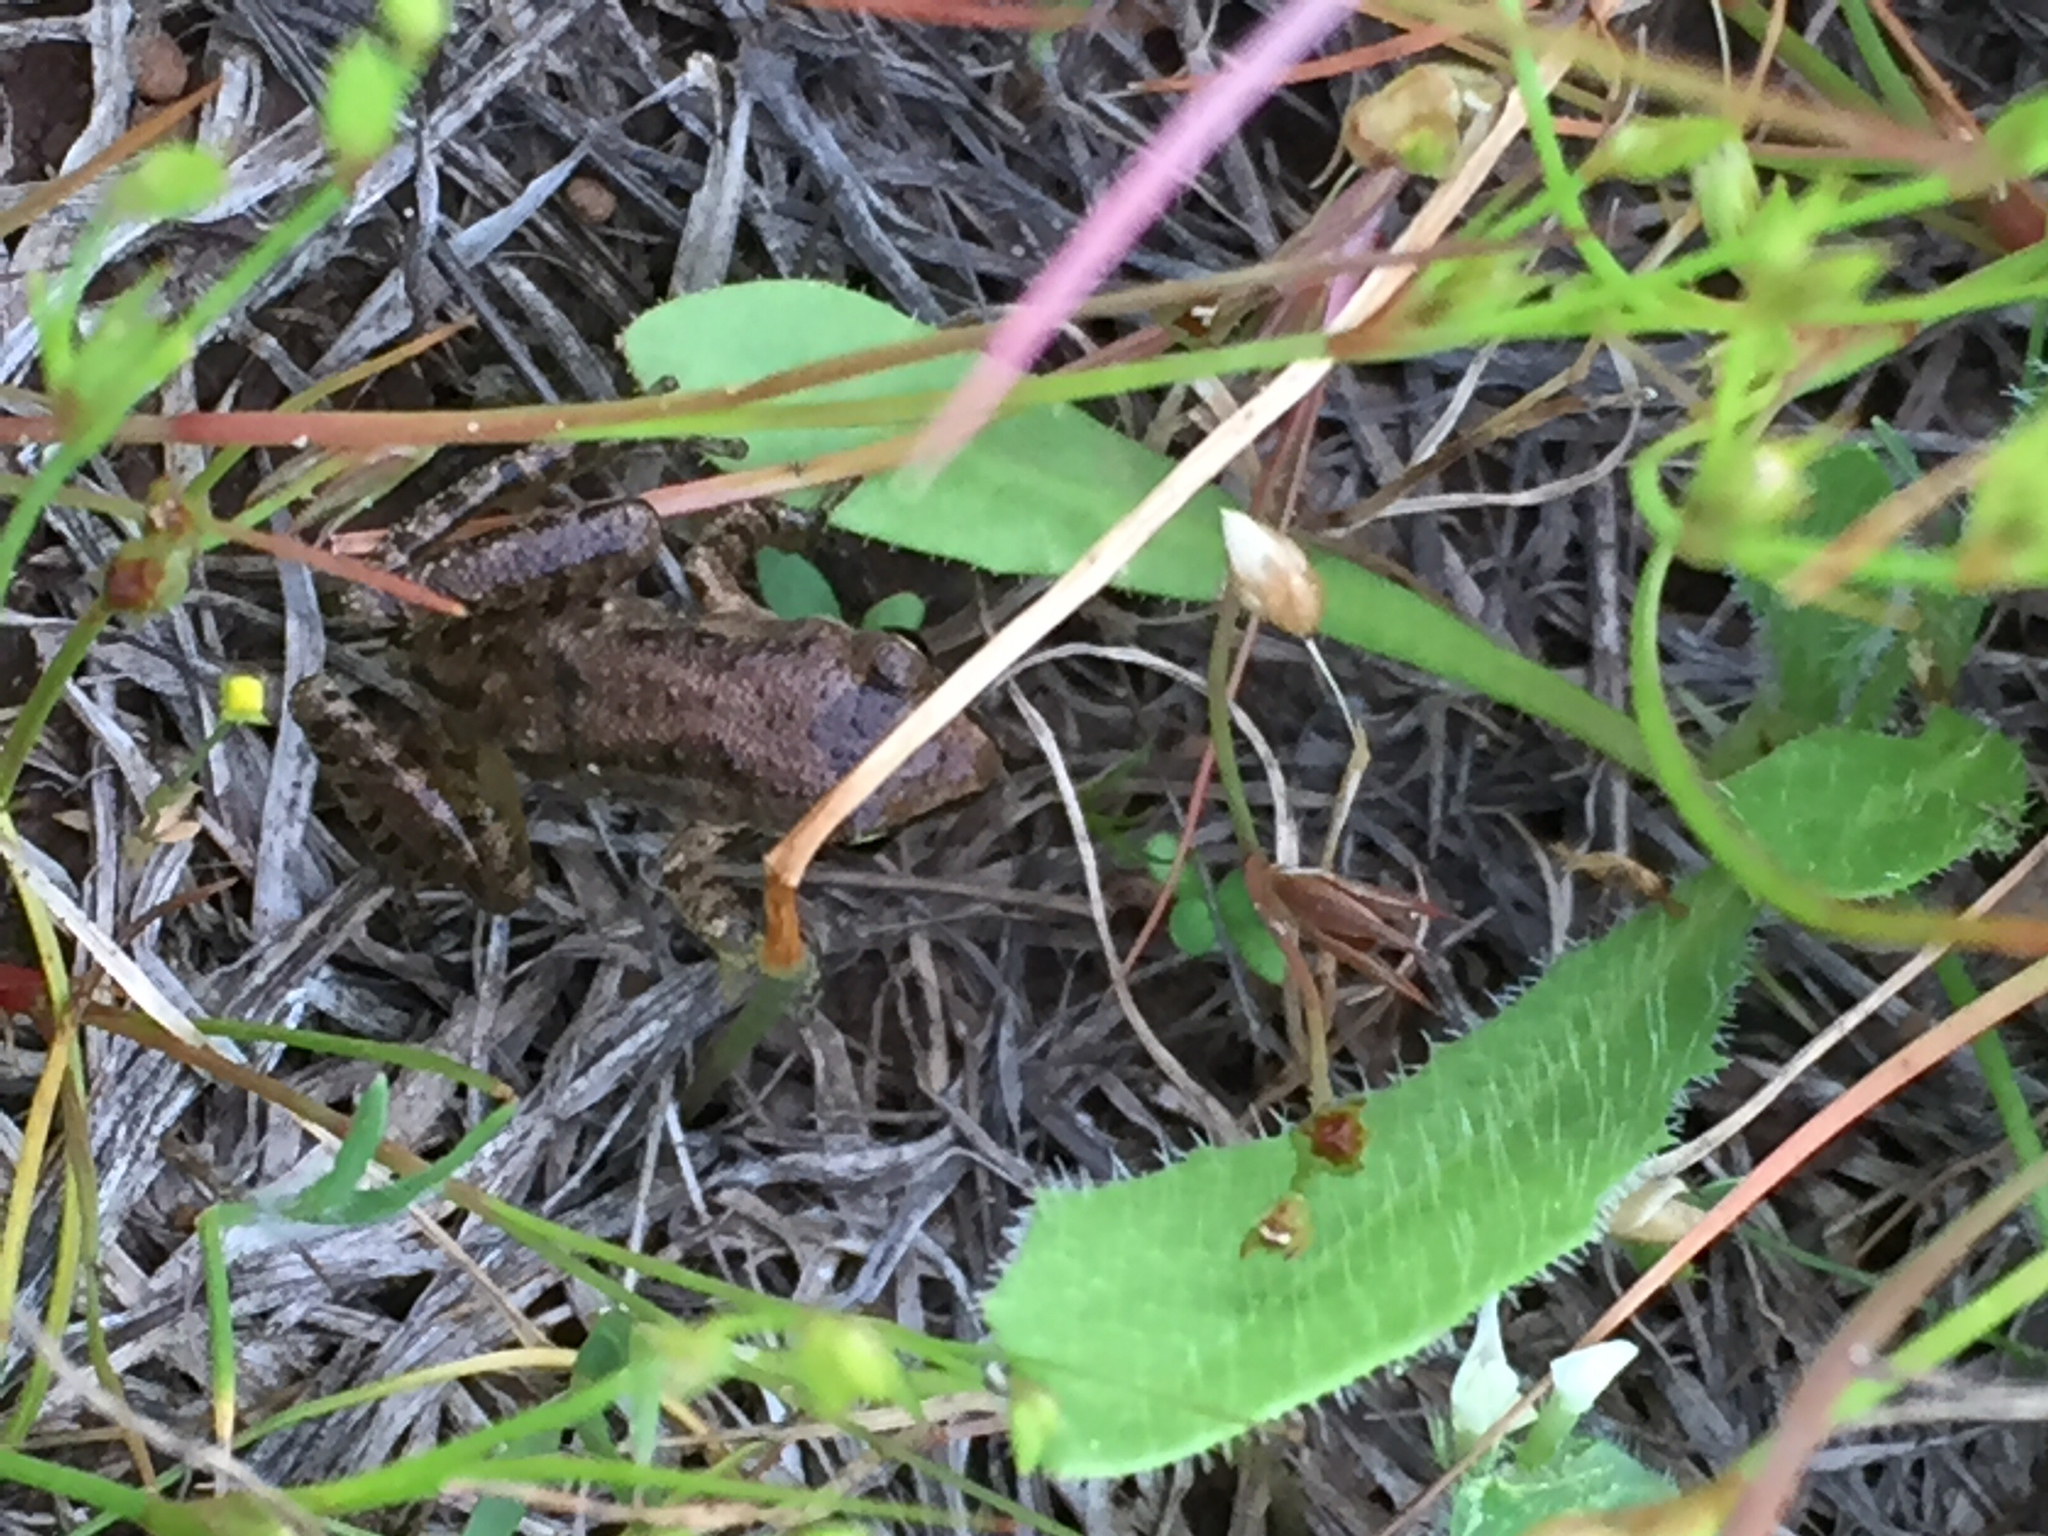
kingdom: Animalia
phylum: Chordata
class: Amphibia
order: Anura
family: Hylidae
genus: Pseudacris
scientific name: Pseudacris regilla
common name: Pacific chorus frog
